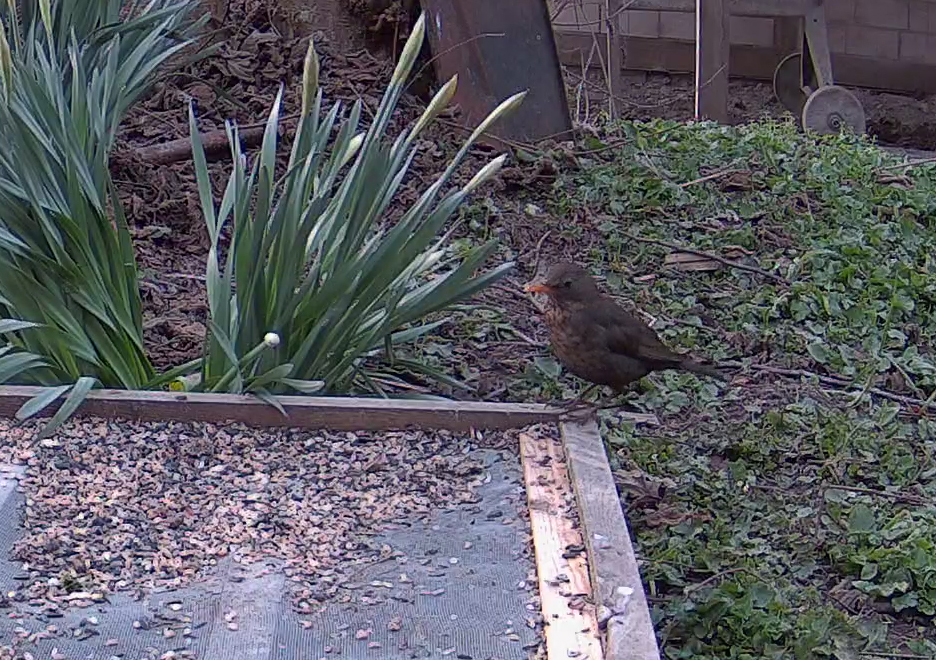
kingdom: Animalia
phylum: Chordata
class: Aves
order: Passeriformes
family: Turdidae
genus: Turdus
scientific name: Turdus merula
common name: Common blackbird
